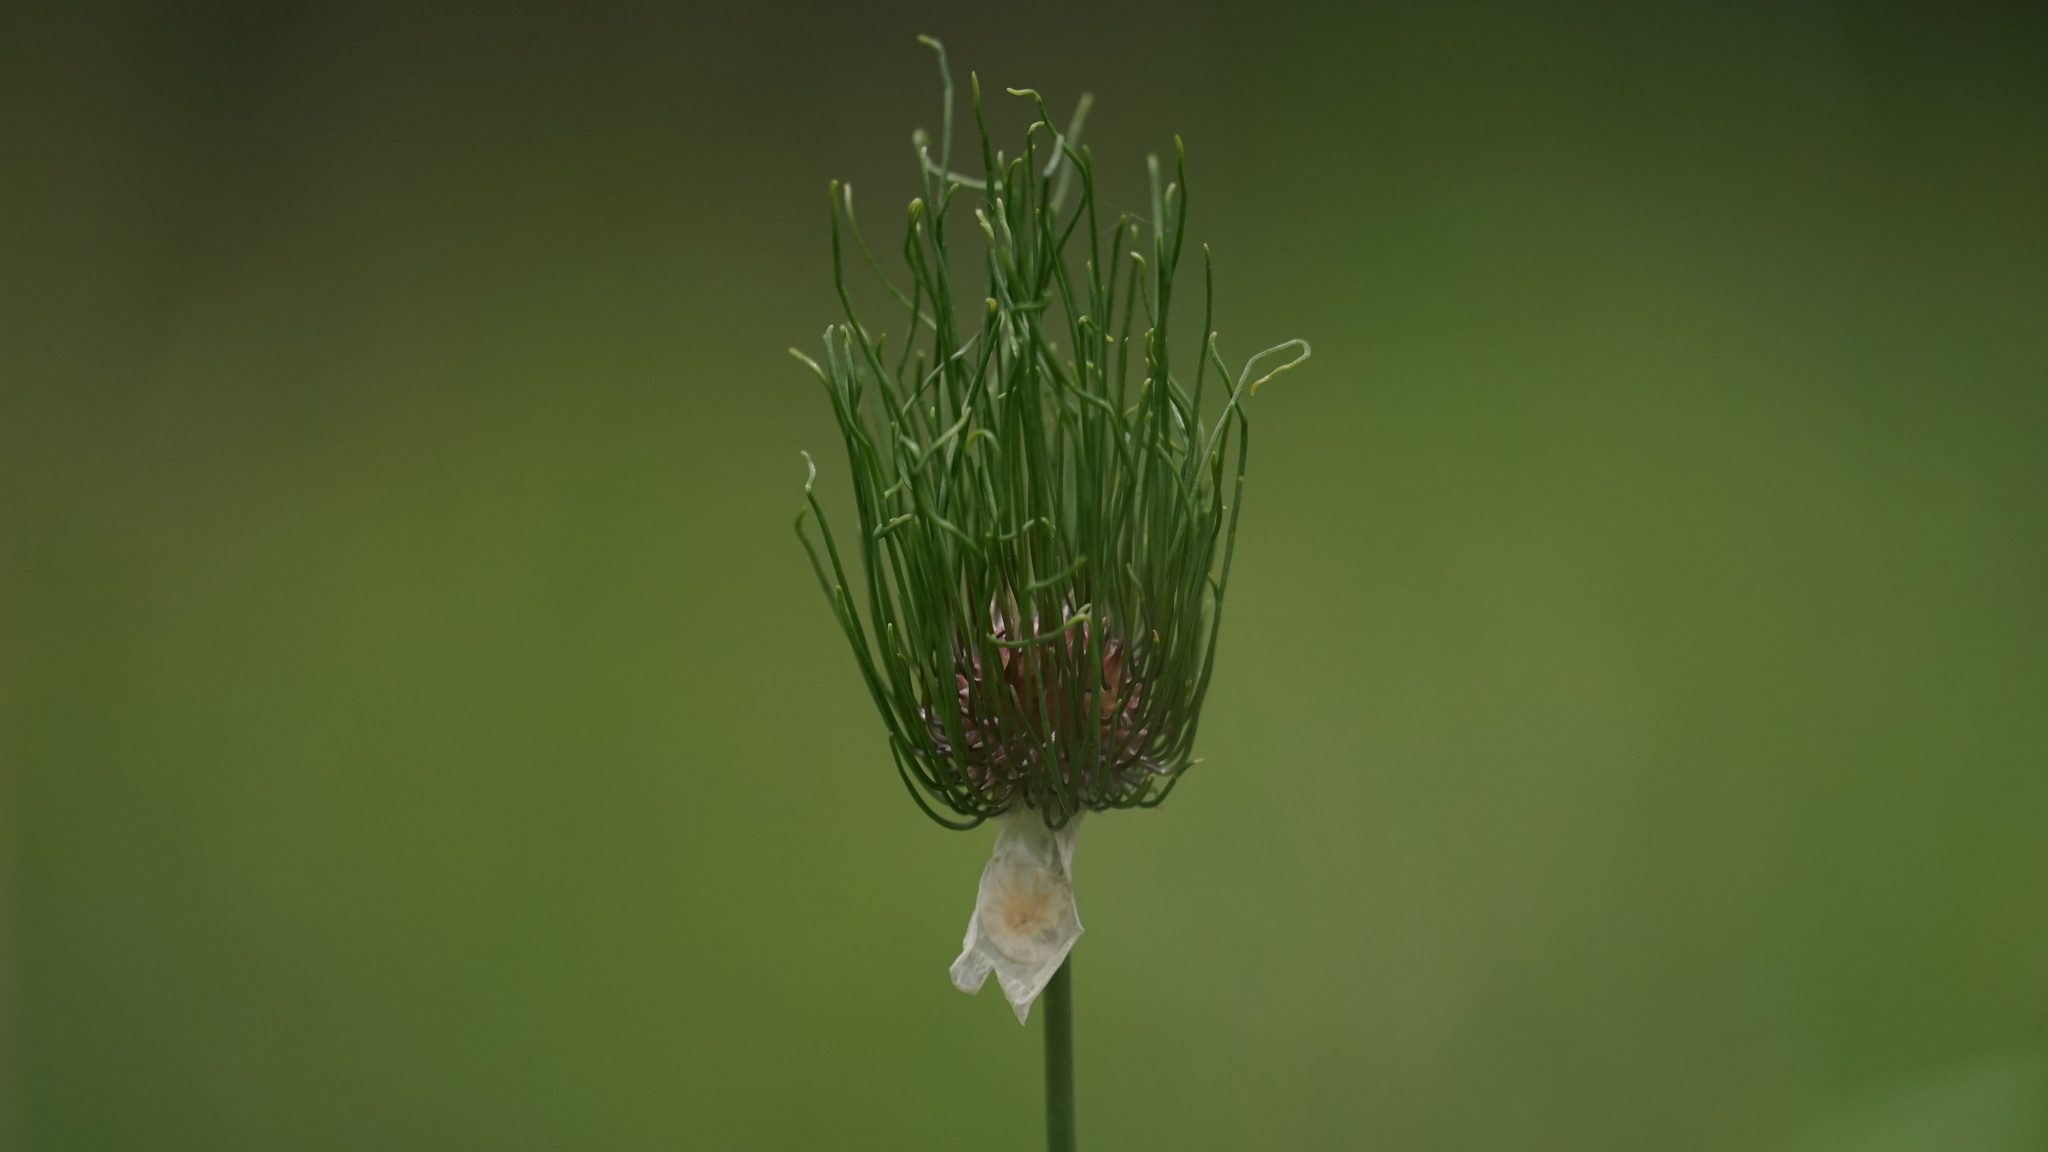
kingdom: Plantae
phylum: Tracheophyta
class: Liliopsida
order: Asparagales
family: Amaryllidaceae
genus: Allium
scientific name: Allium vineale
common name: Crow garlic
